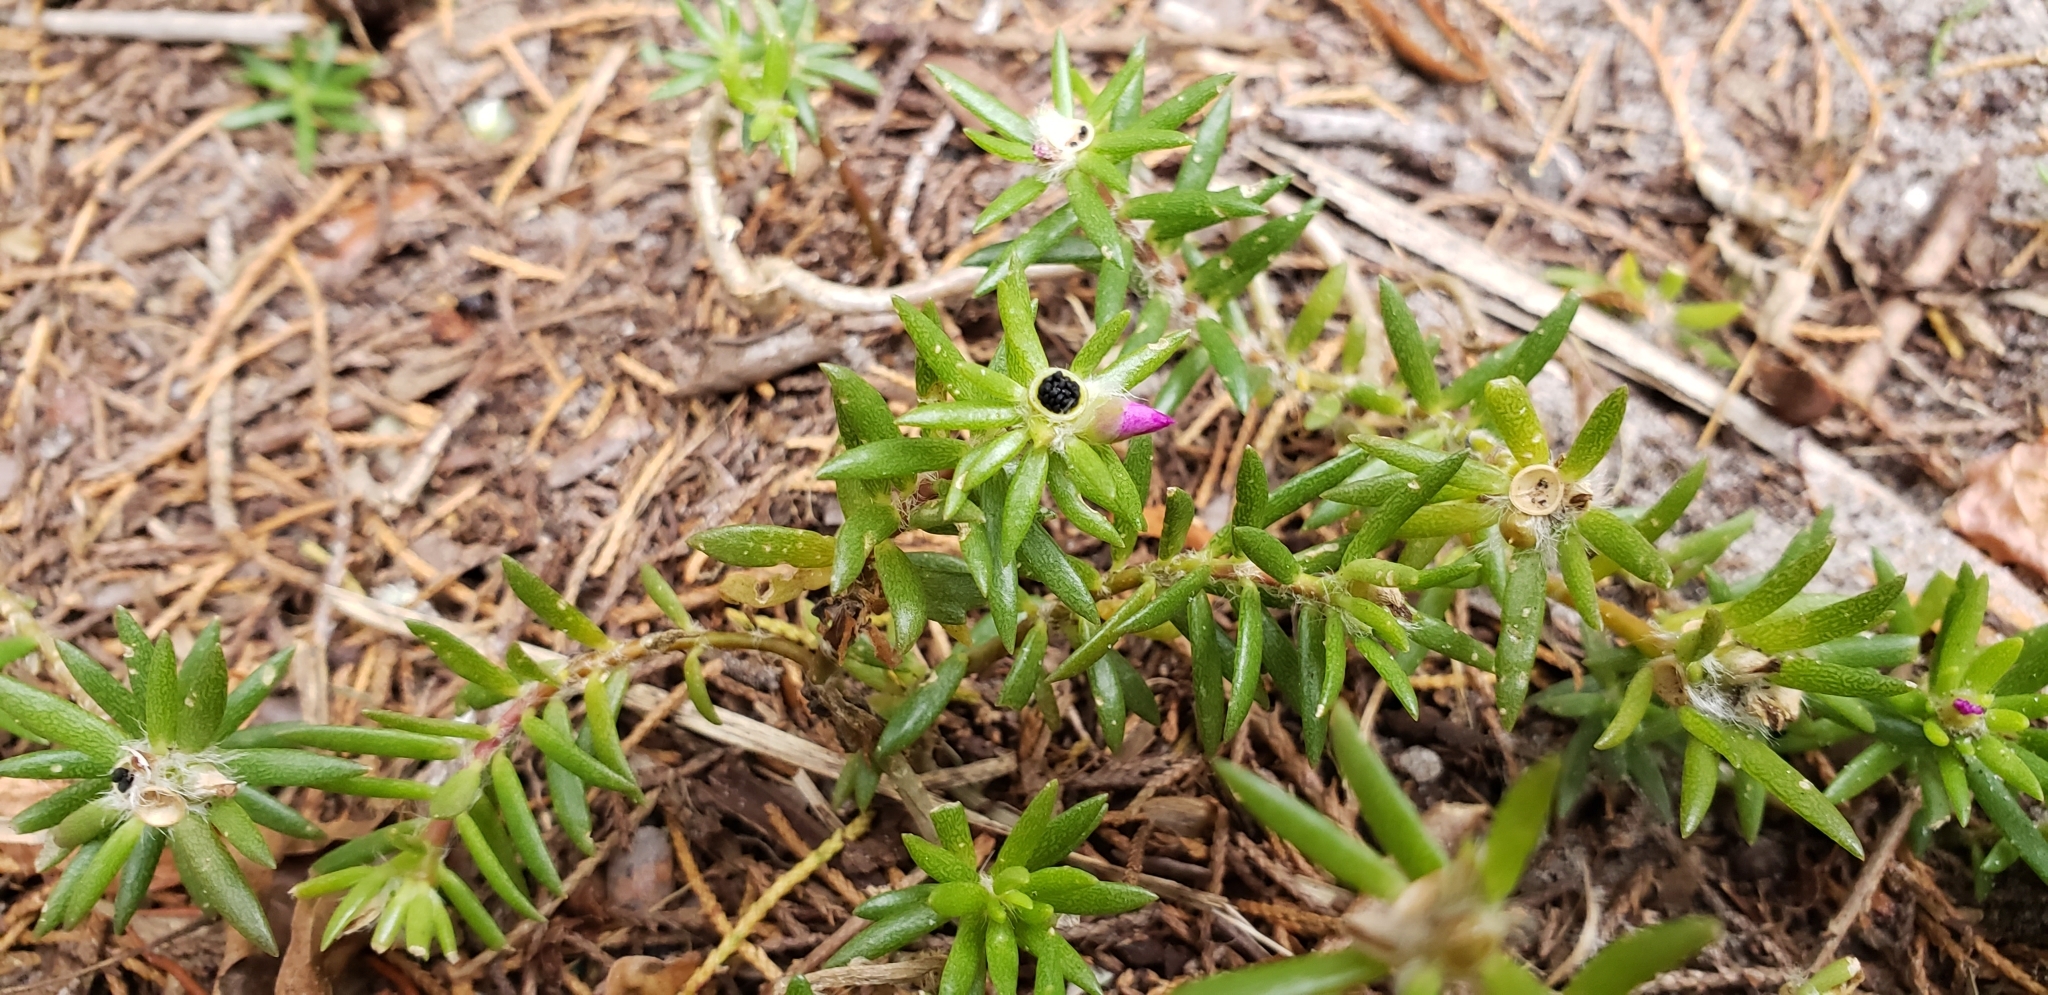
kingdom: Plantae
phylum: Tracheophyta
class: Magnoliopsida
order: Caryophyllales
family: Portulacaceae
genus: Portulaca
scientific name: Portulaca pilosa
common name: Kiss me quick
